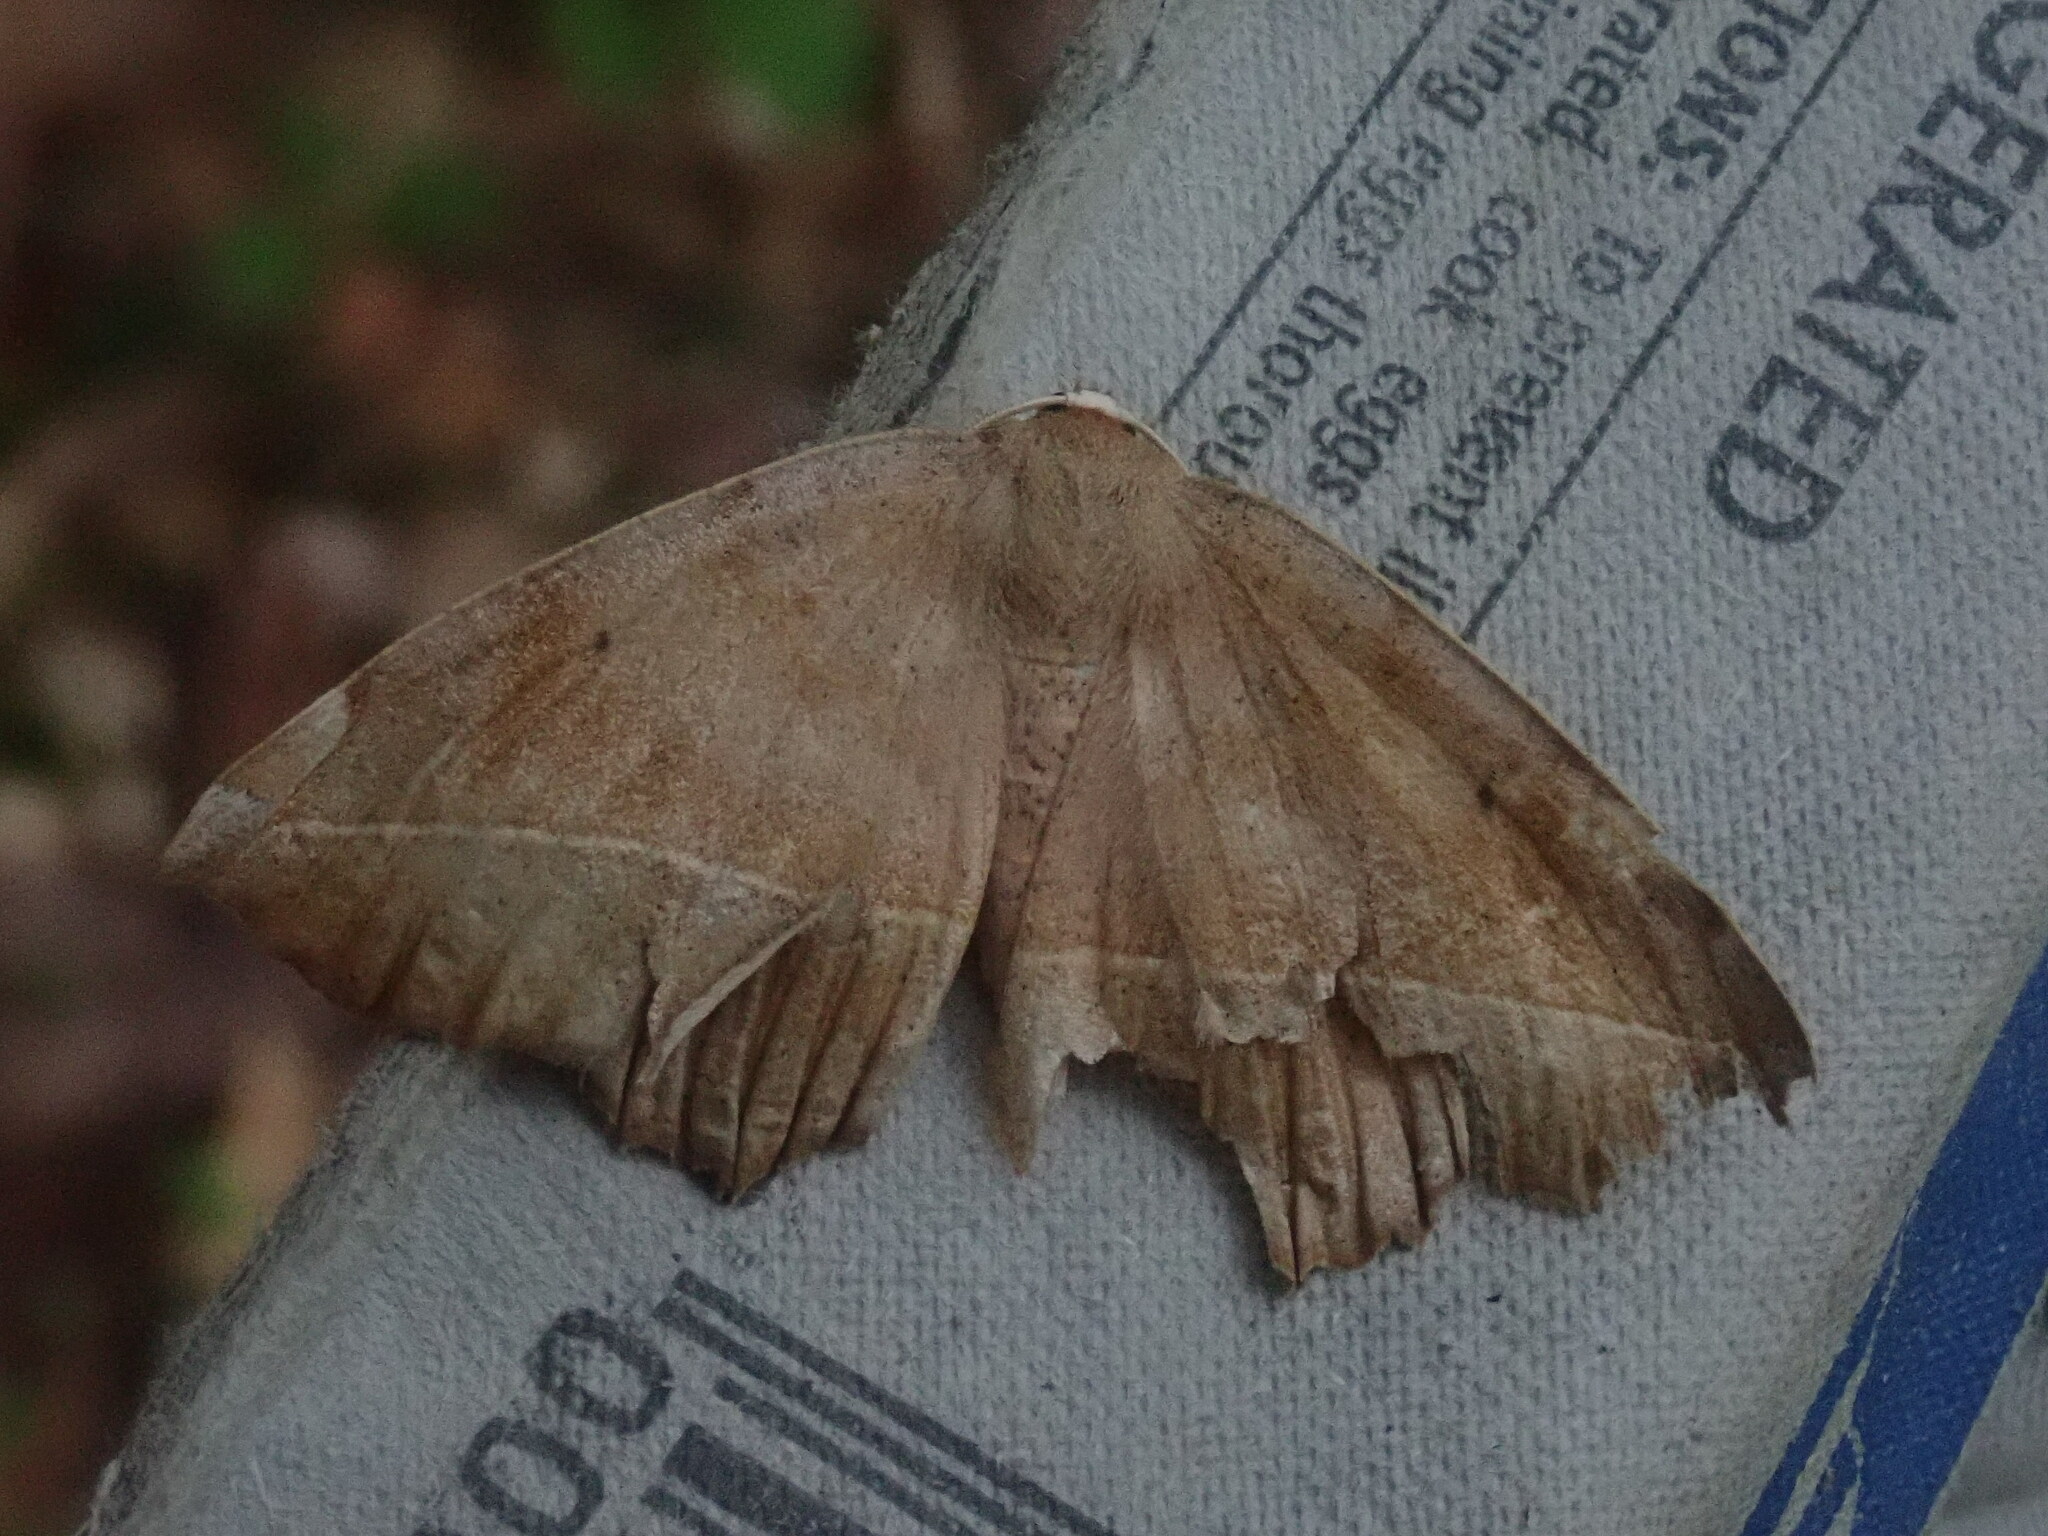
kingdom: Animalia
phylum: Arthropoda
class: Insecta
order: Lepidoptera
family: Geometridae
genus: Eutrapela
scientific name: Eutrapela clemataria
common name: Curved-toothed geometer
